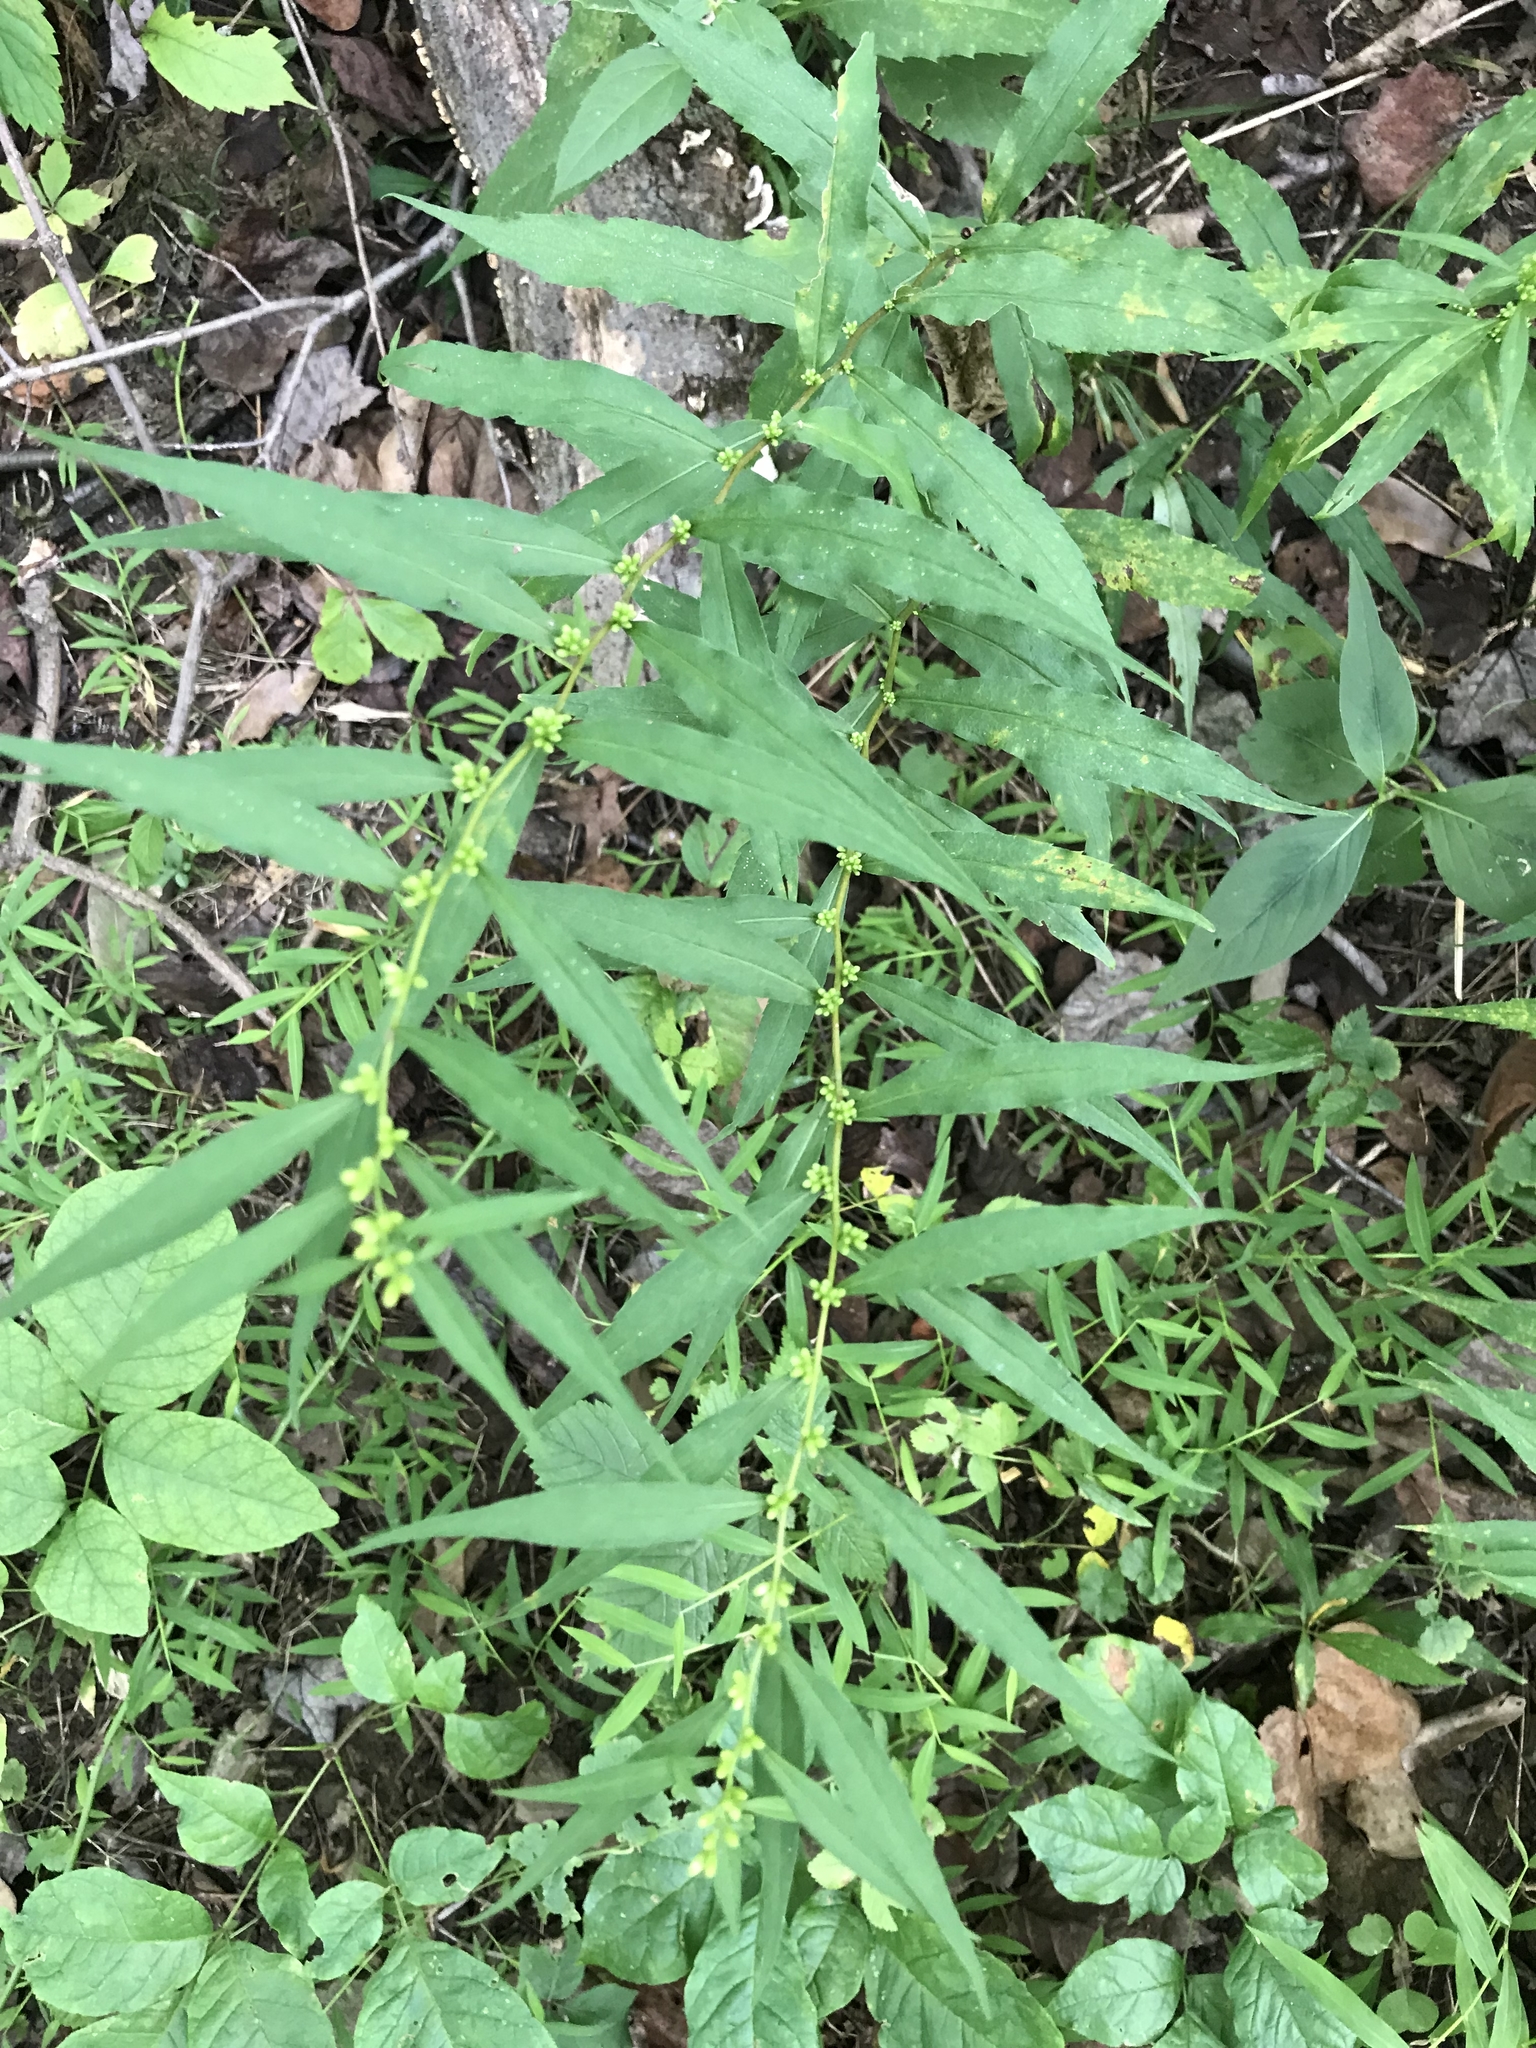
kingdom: Plantae
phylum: Tracheophyta
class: Magnoliopsida
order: Asterales
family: Asteraceae
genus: Solidago
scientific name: Solidago caesia
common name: Woodland goldenrod
